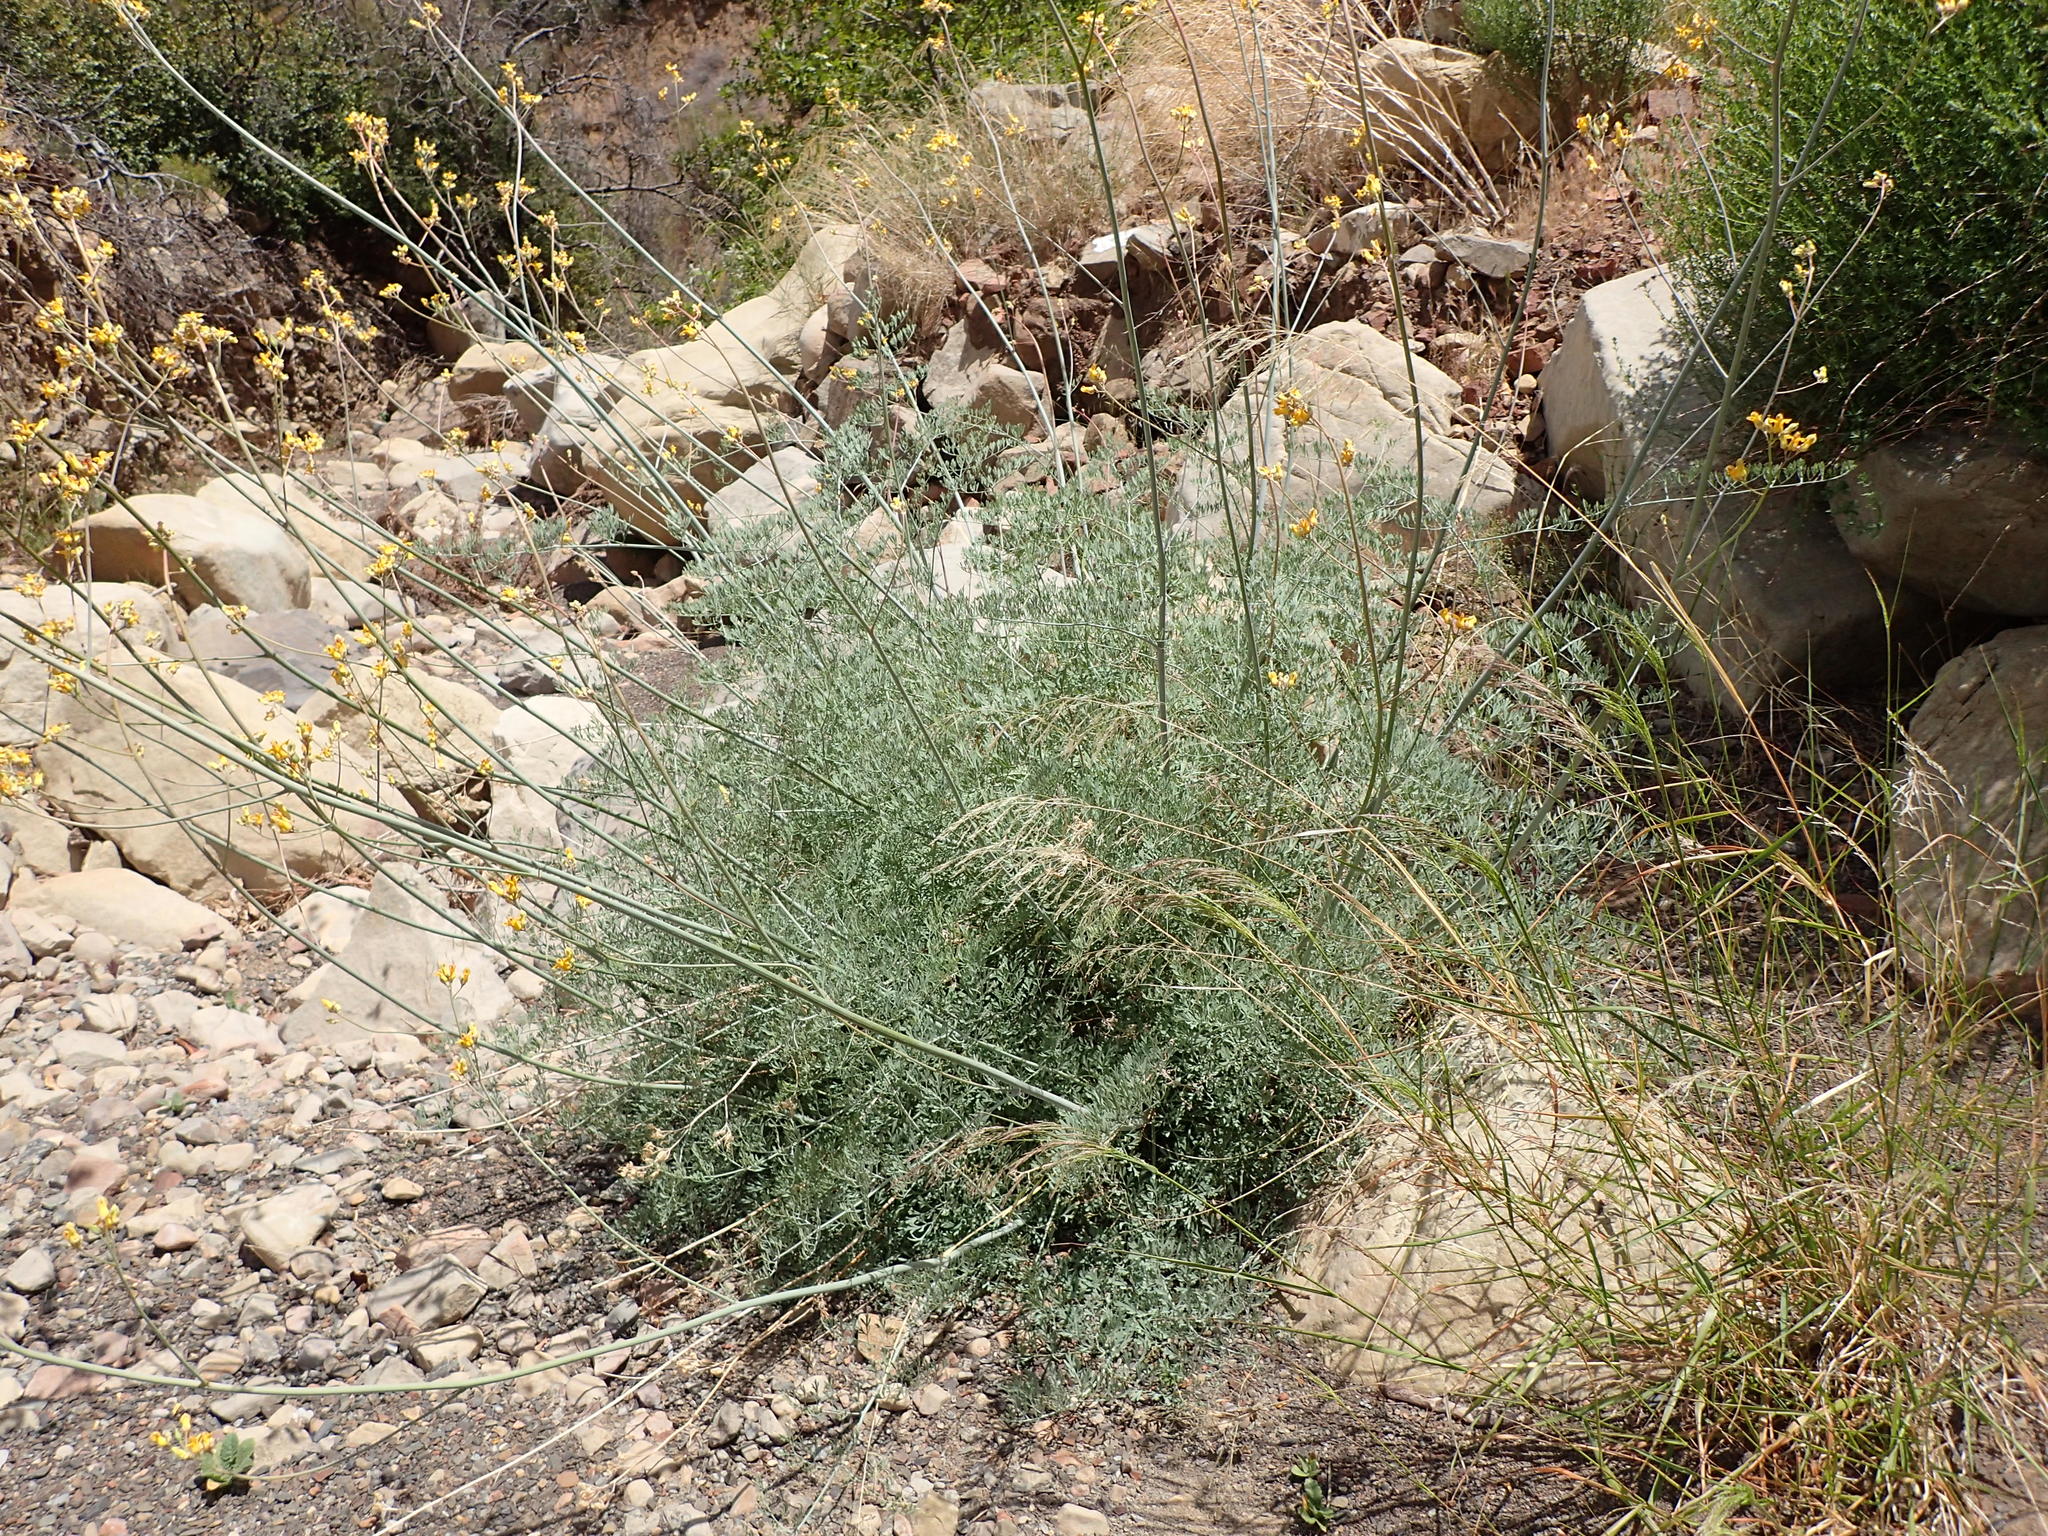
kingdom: Plantae
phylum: Tracheophyta
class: Magnoliopsida
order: Ranunculales
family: Papaveraceae
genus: Ehrendorferia
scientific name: Ehrendorferia chrysantha
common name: Golden eardrops
